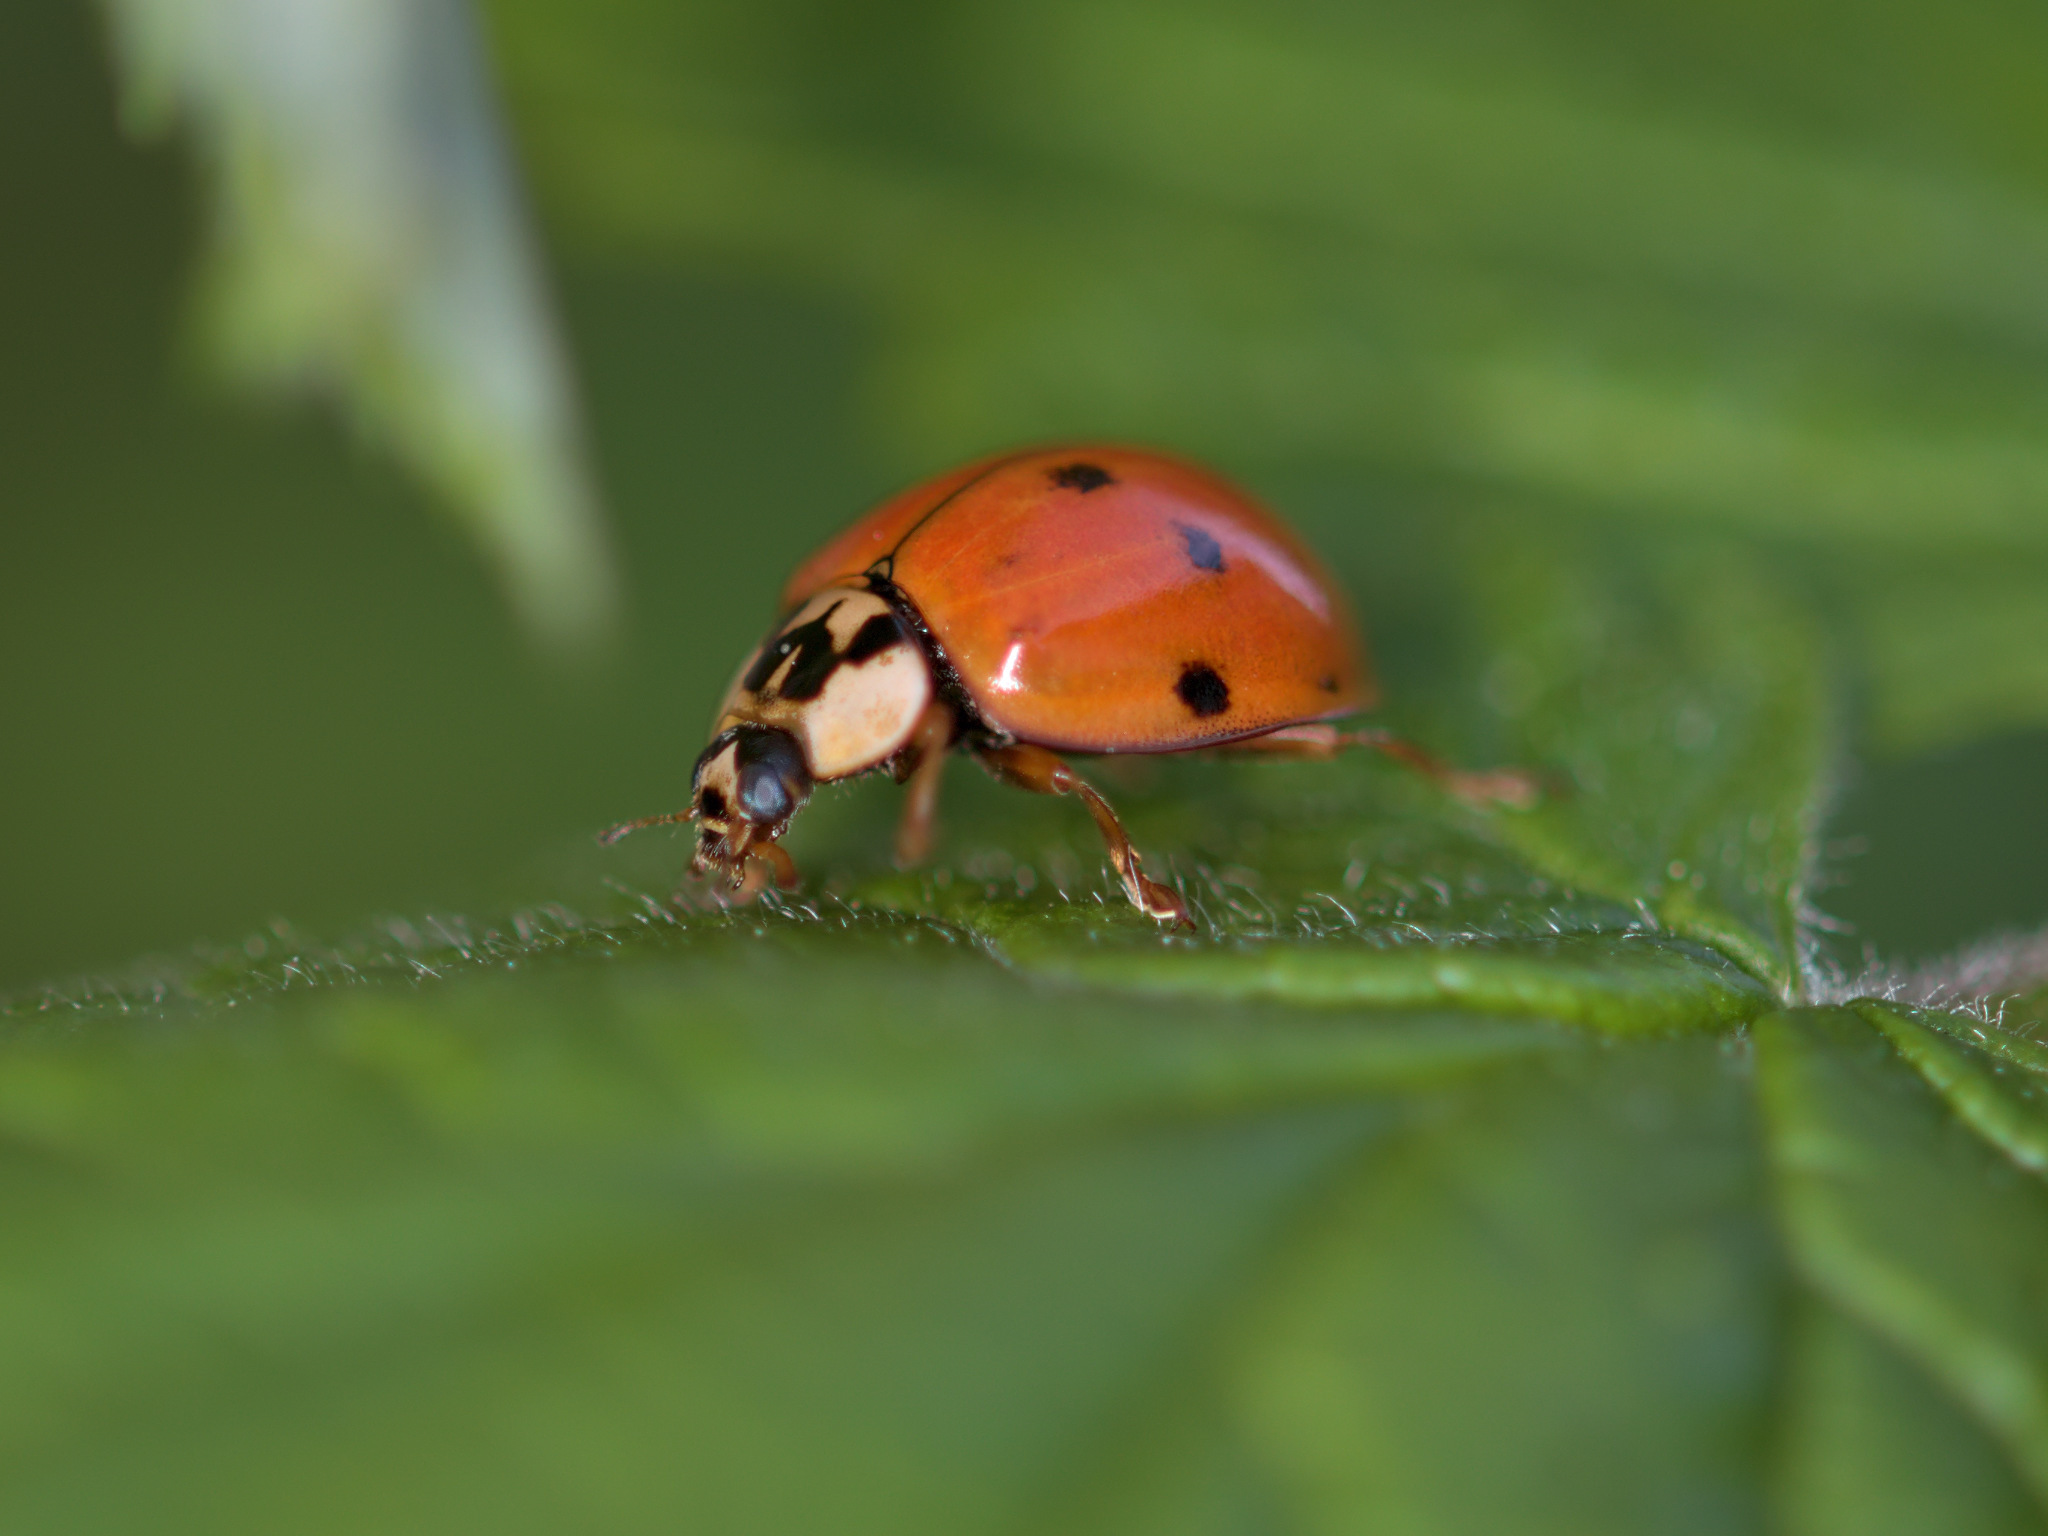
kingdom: Animalia
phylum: Arthropoda
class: Insecta
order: Coleoptera
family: Coccinellidae
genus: Harmonia
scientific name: Harmonia axyridis
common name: Harlequin ladybird
